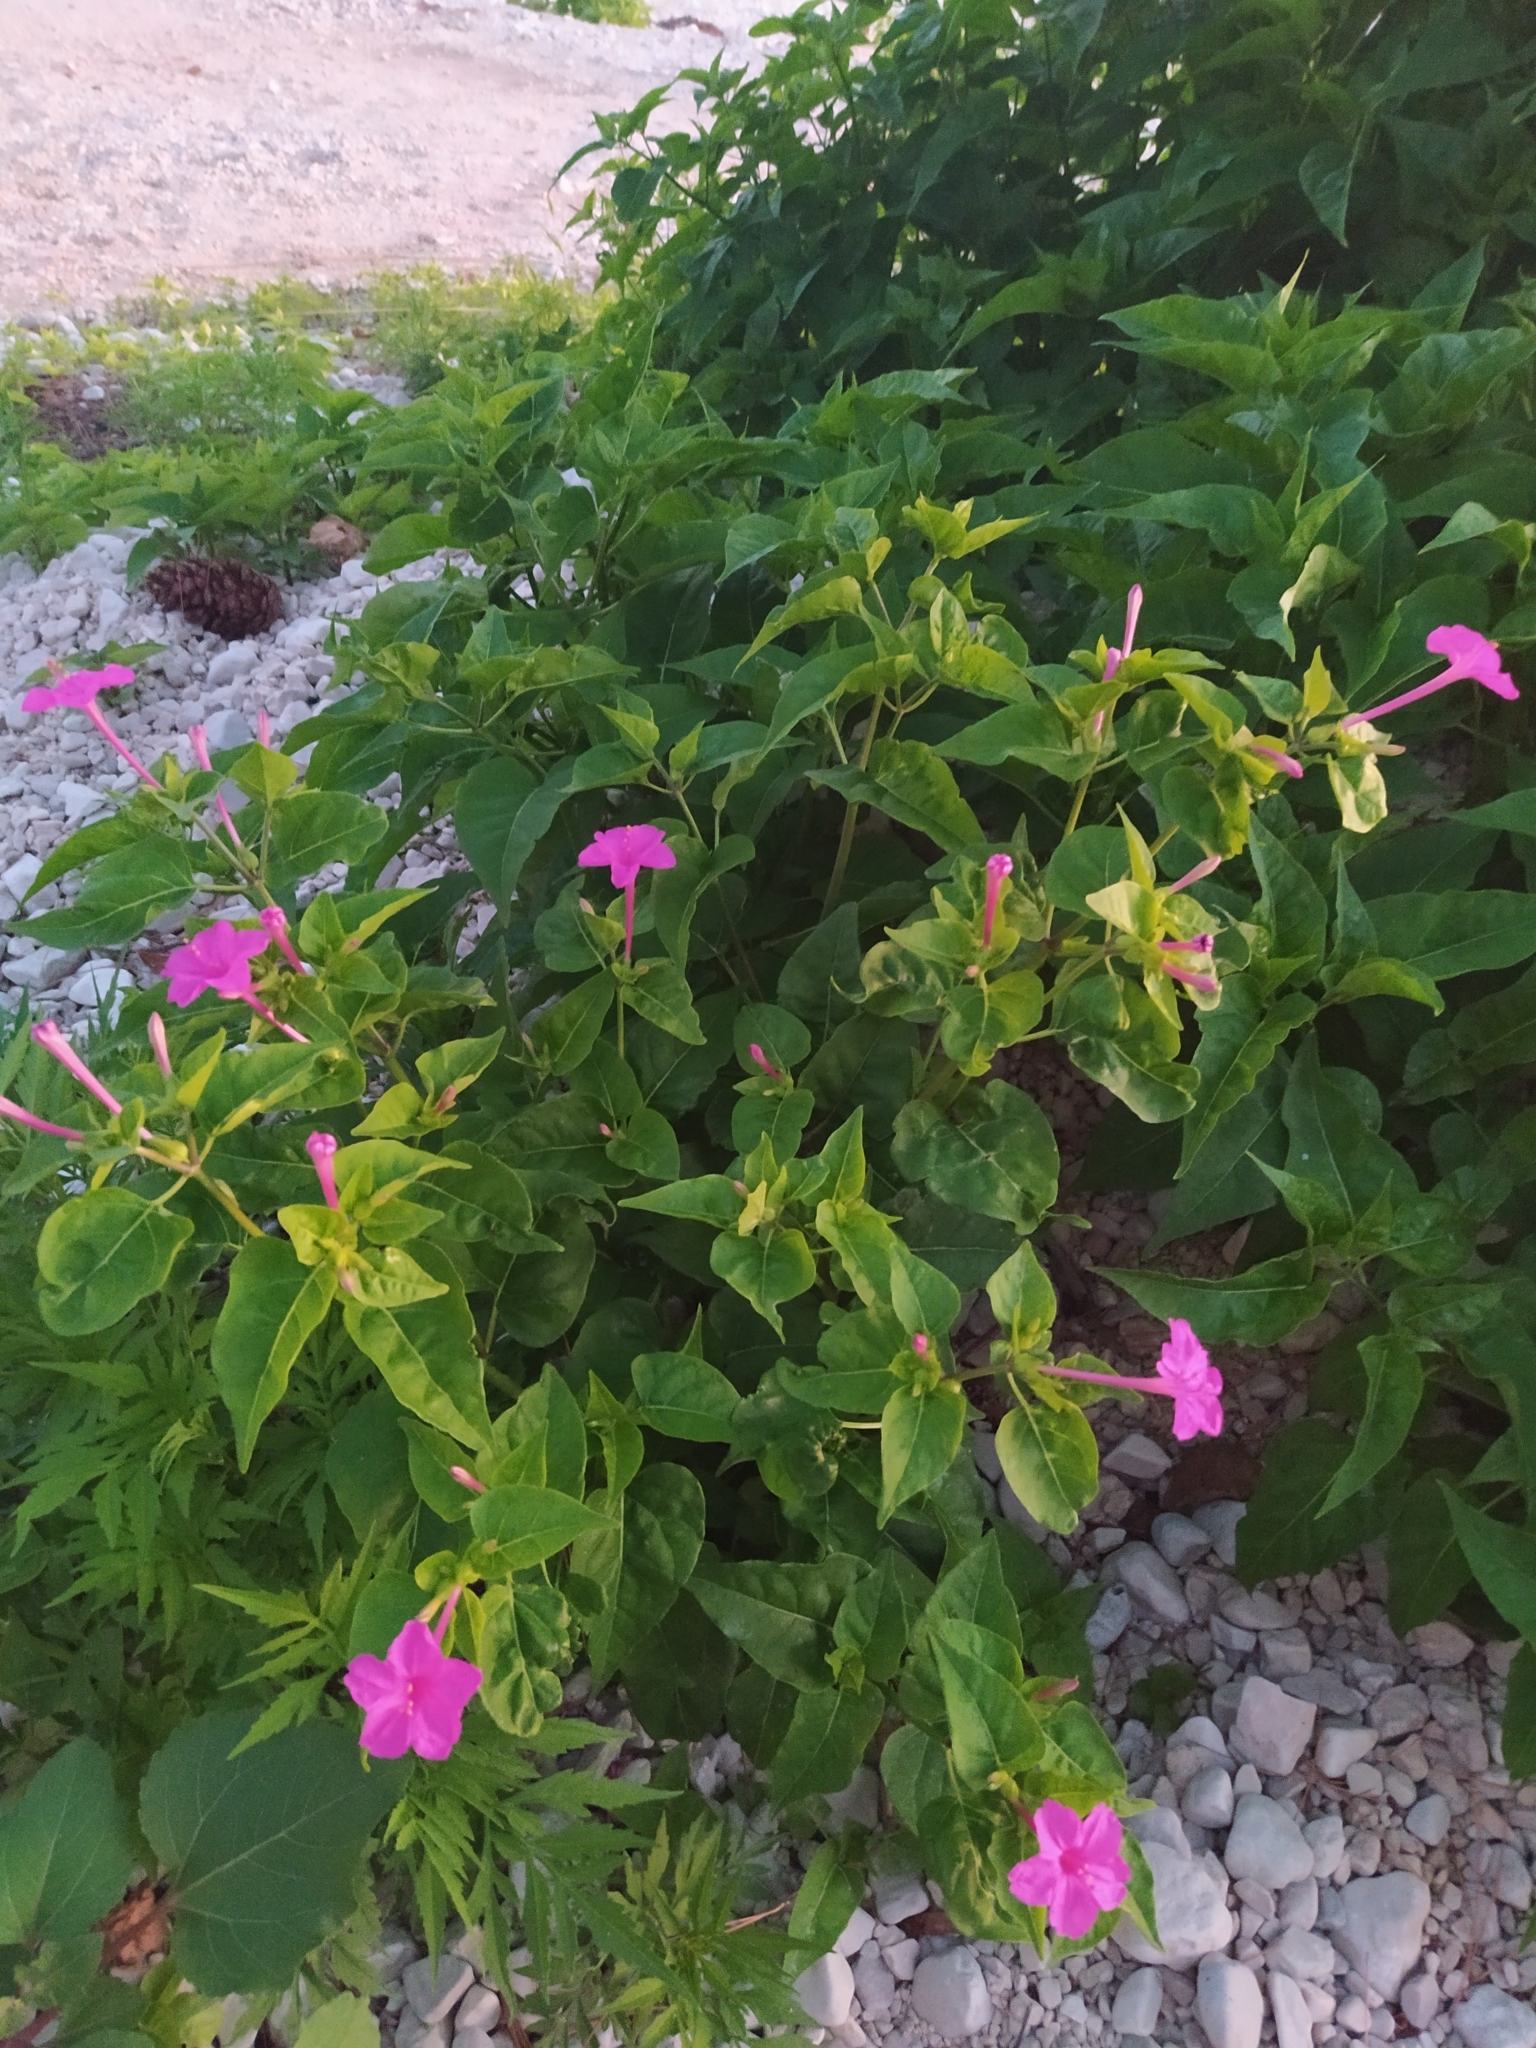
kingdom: Plantae
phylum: Tracheophyta
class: Magnoliopsida
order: Caryophyllales
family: Nyctaginaceae
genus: Mirabilis
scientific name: Mirabilis jalapa
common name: Marvel-of-peru
